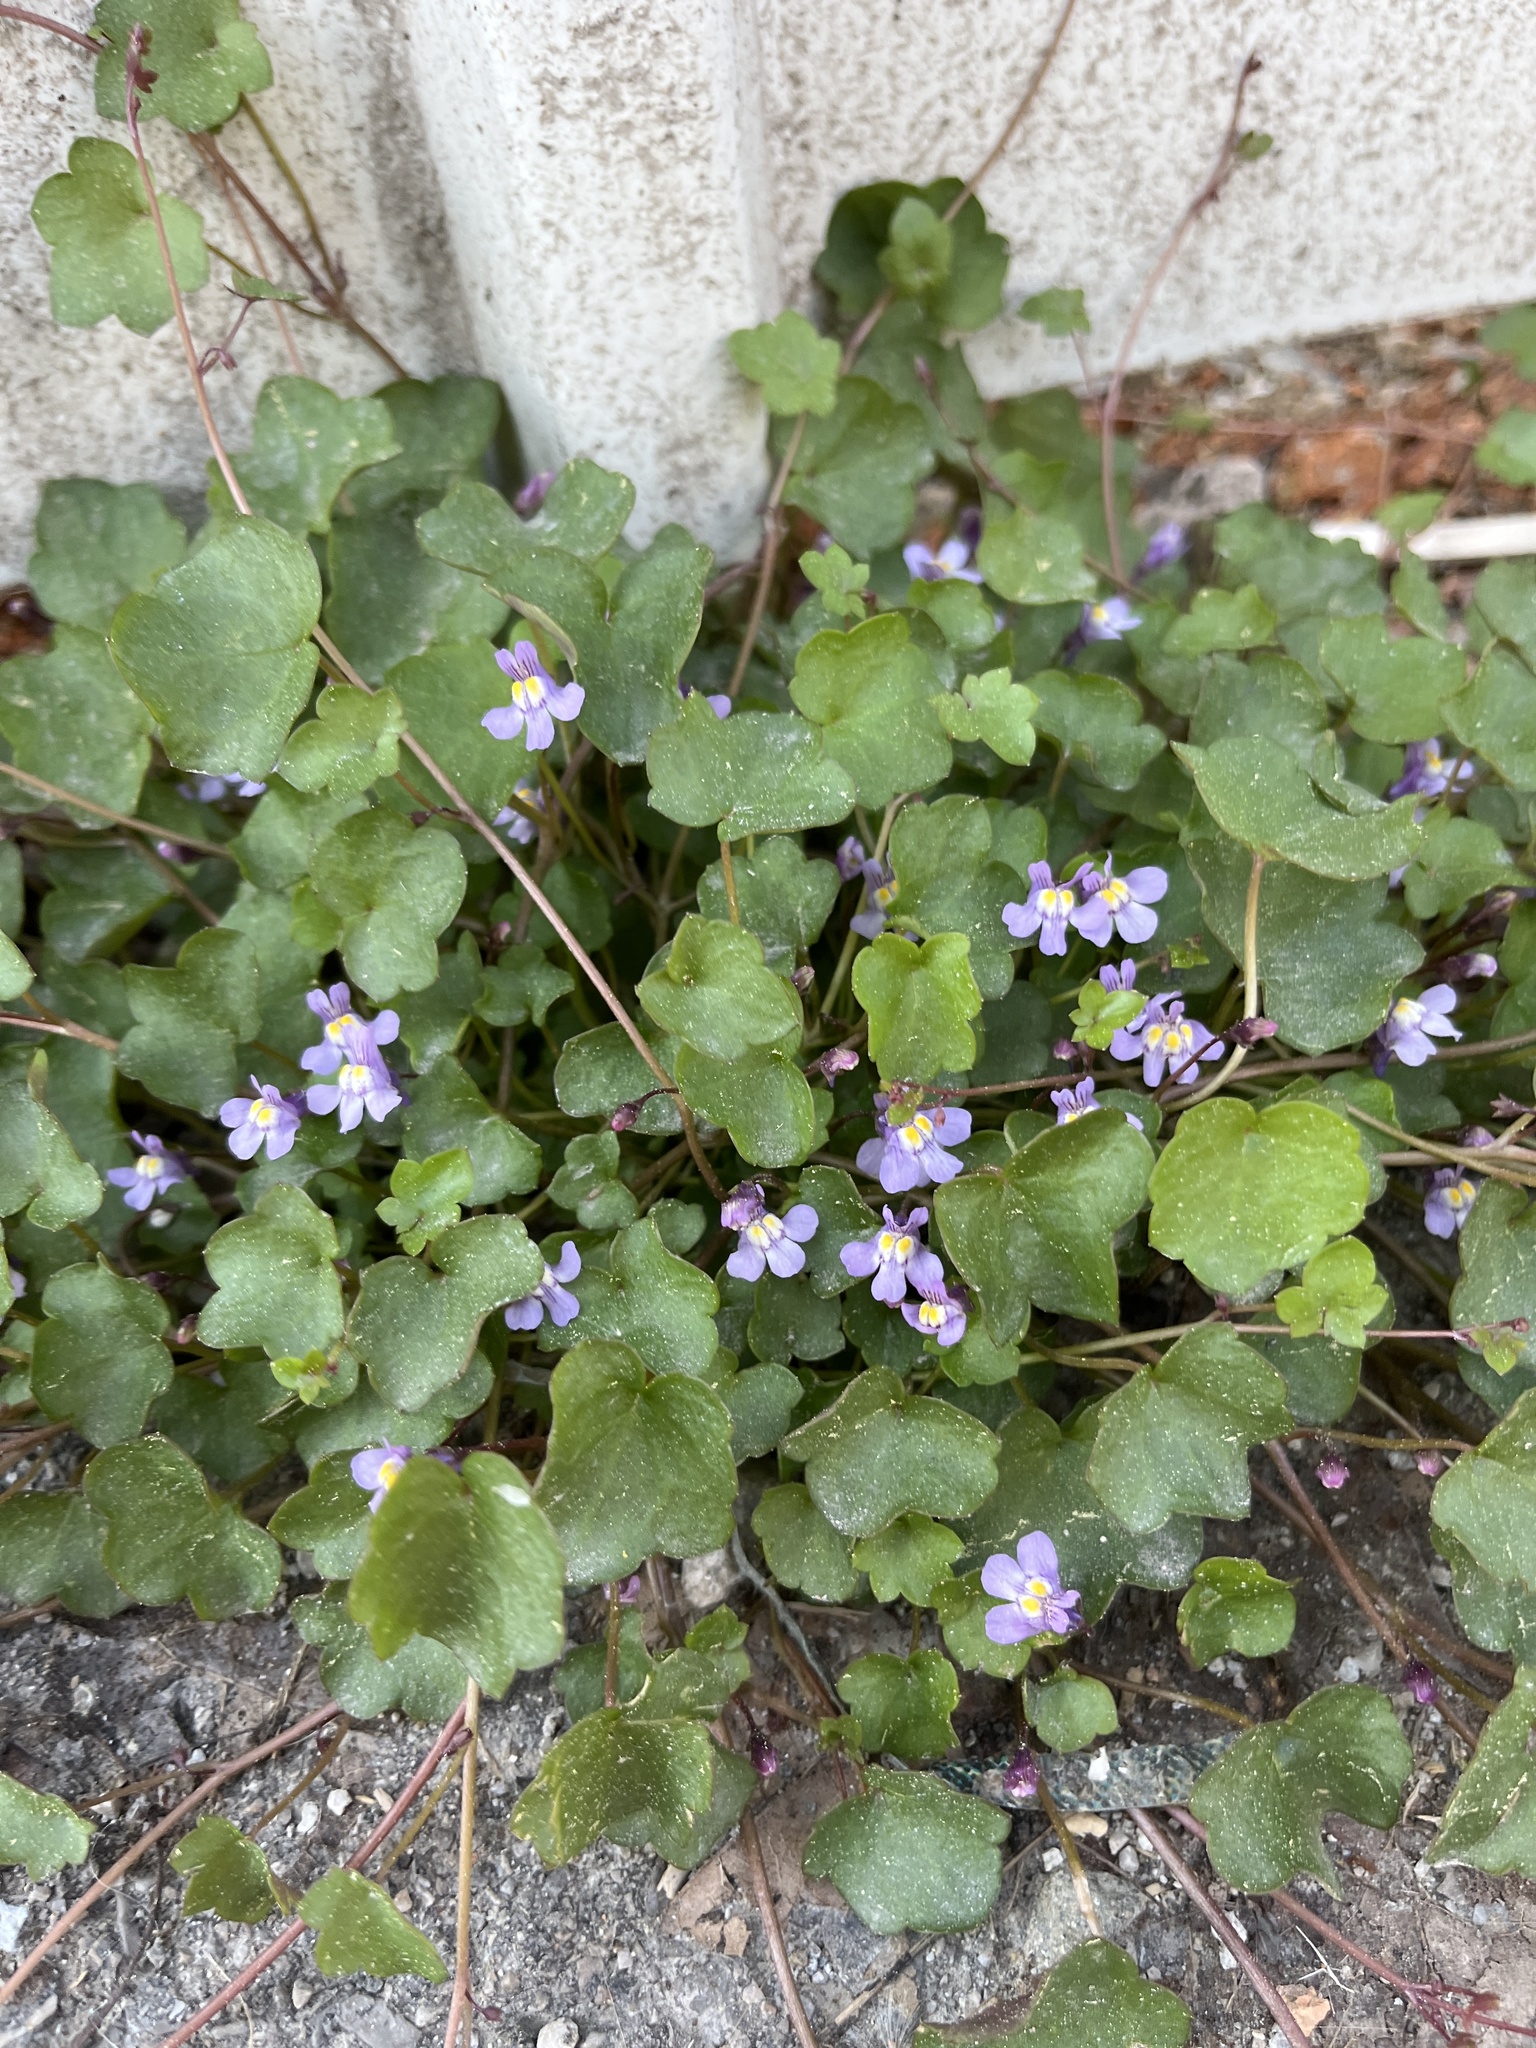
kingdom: Plantae
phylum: Tracheophyta
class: Magnoliopsida
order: Lamiales
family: Plantaginaceae
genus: Cymbalaria
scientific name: Cymbalaria muralis
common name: Ivy-leaved toadflax
